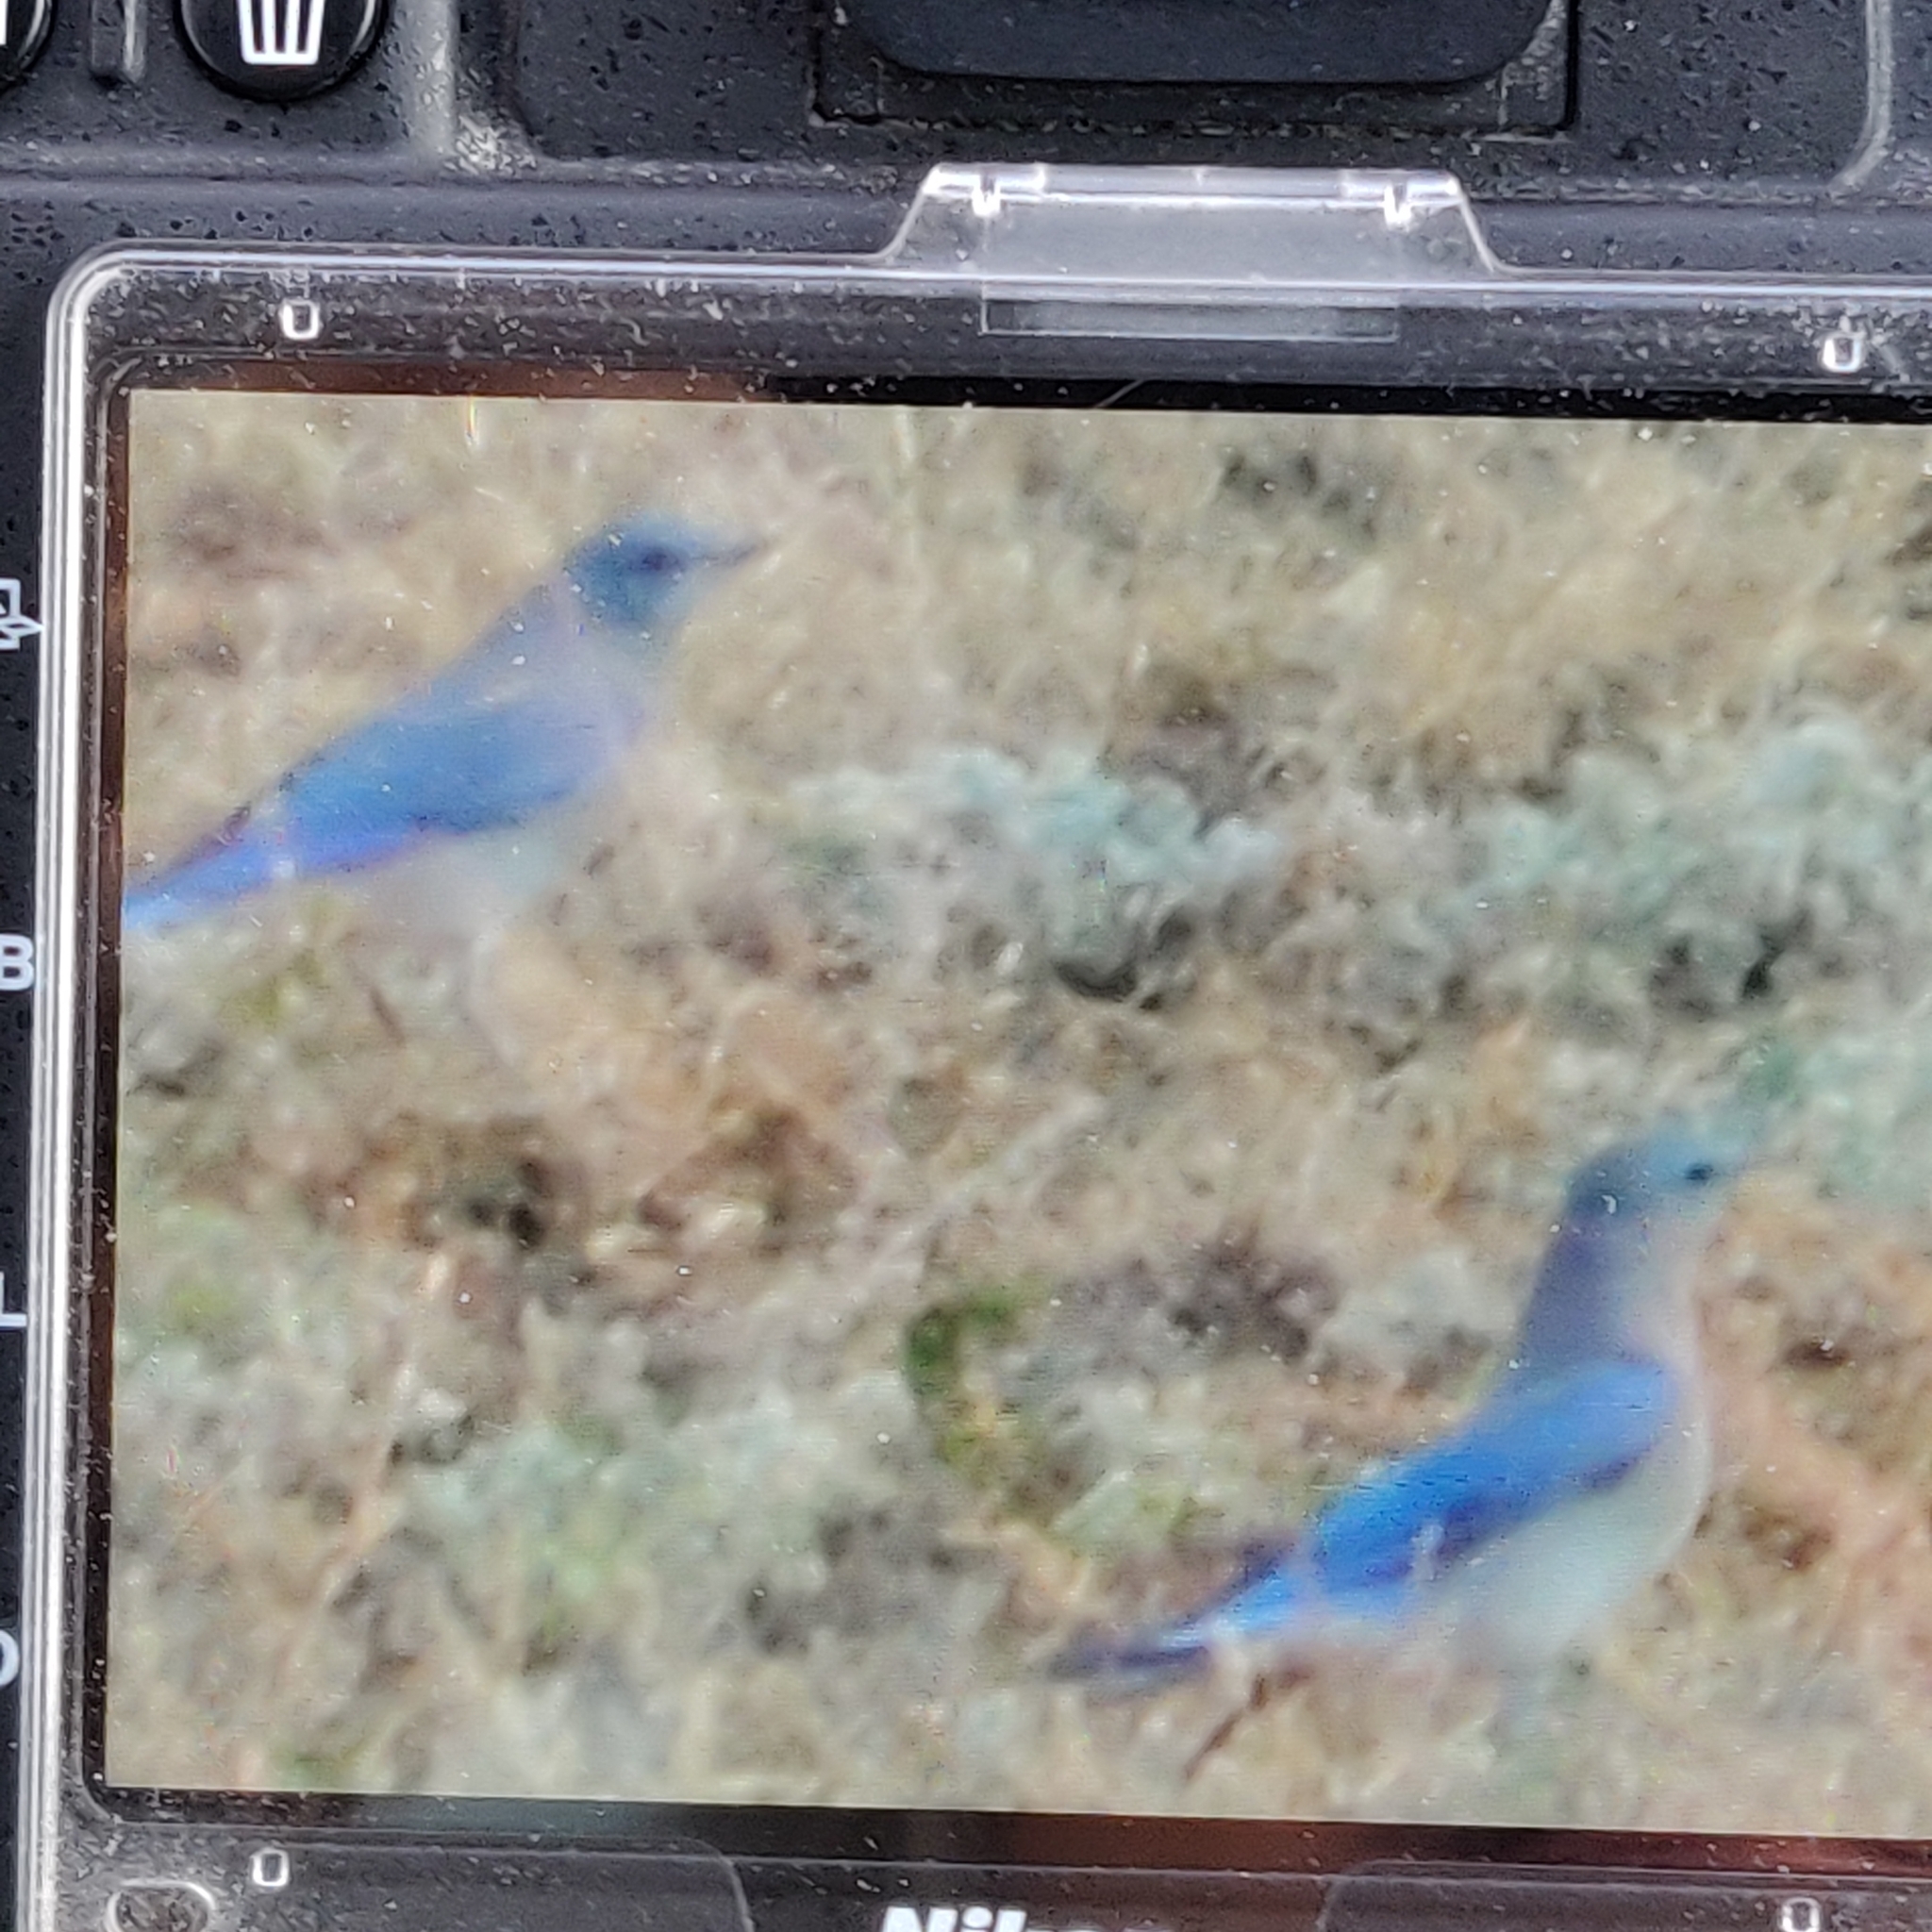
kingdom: Animalia
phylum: Chordata
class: Aves
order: Passeriformes
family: Turdidae
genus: Sialia
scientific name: Sialia mexicana
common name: Western bluebird
